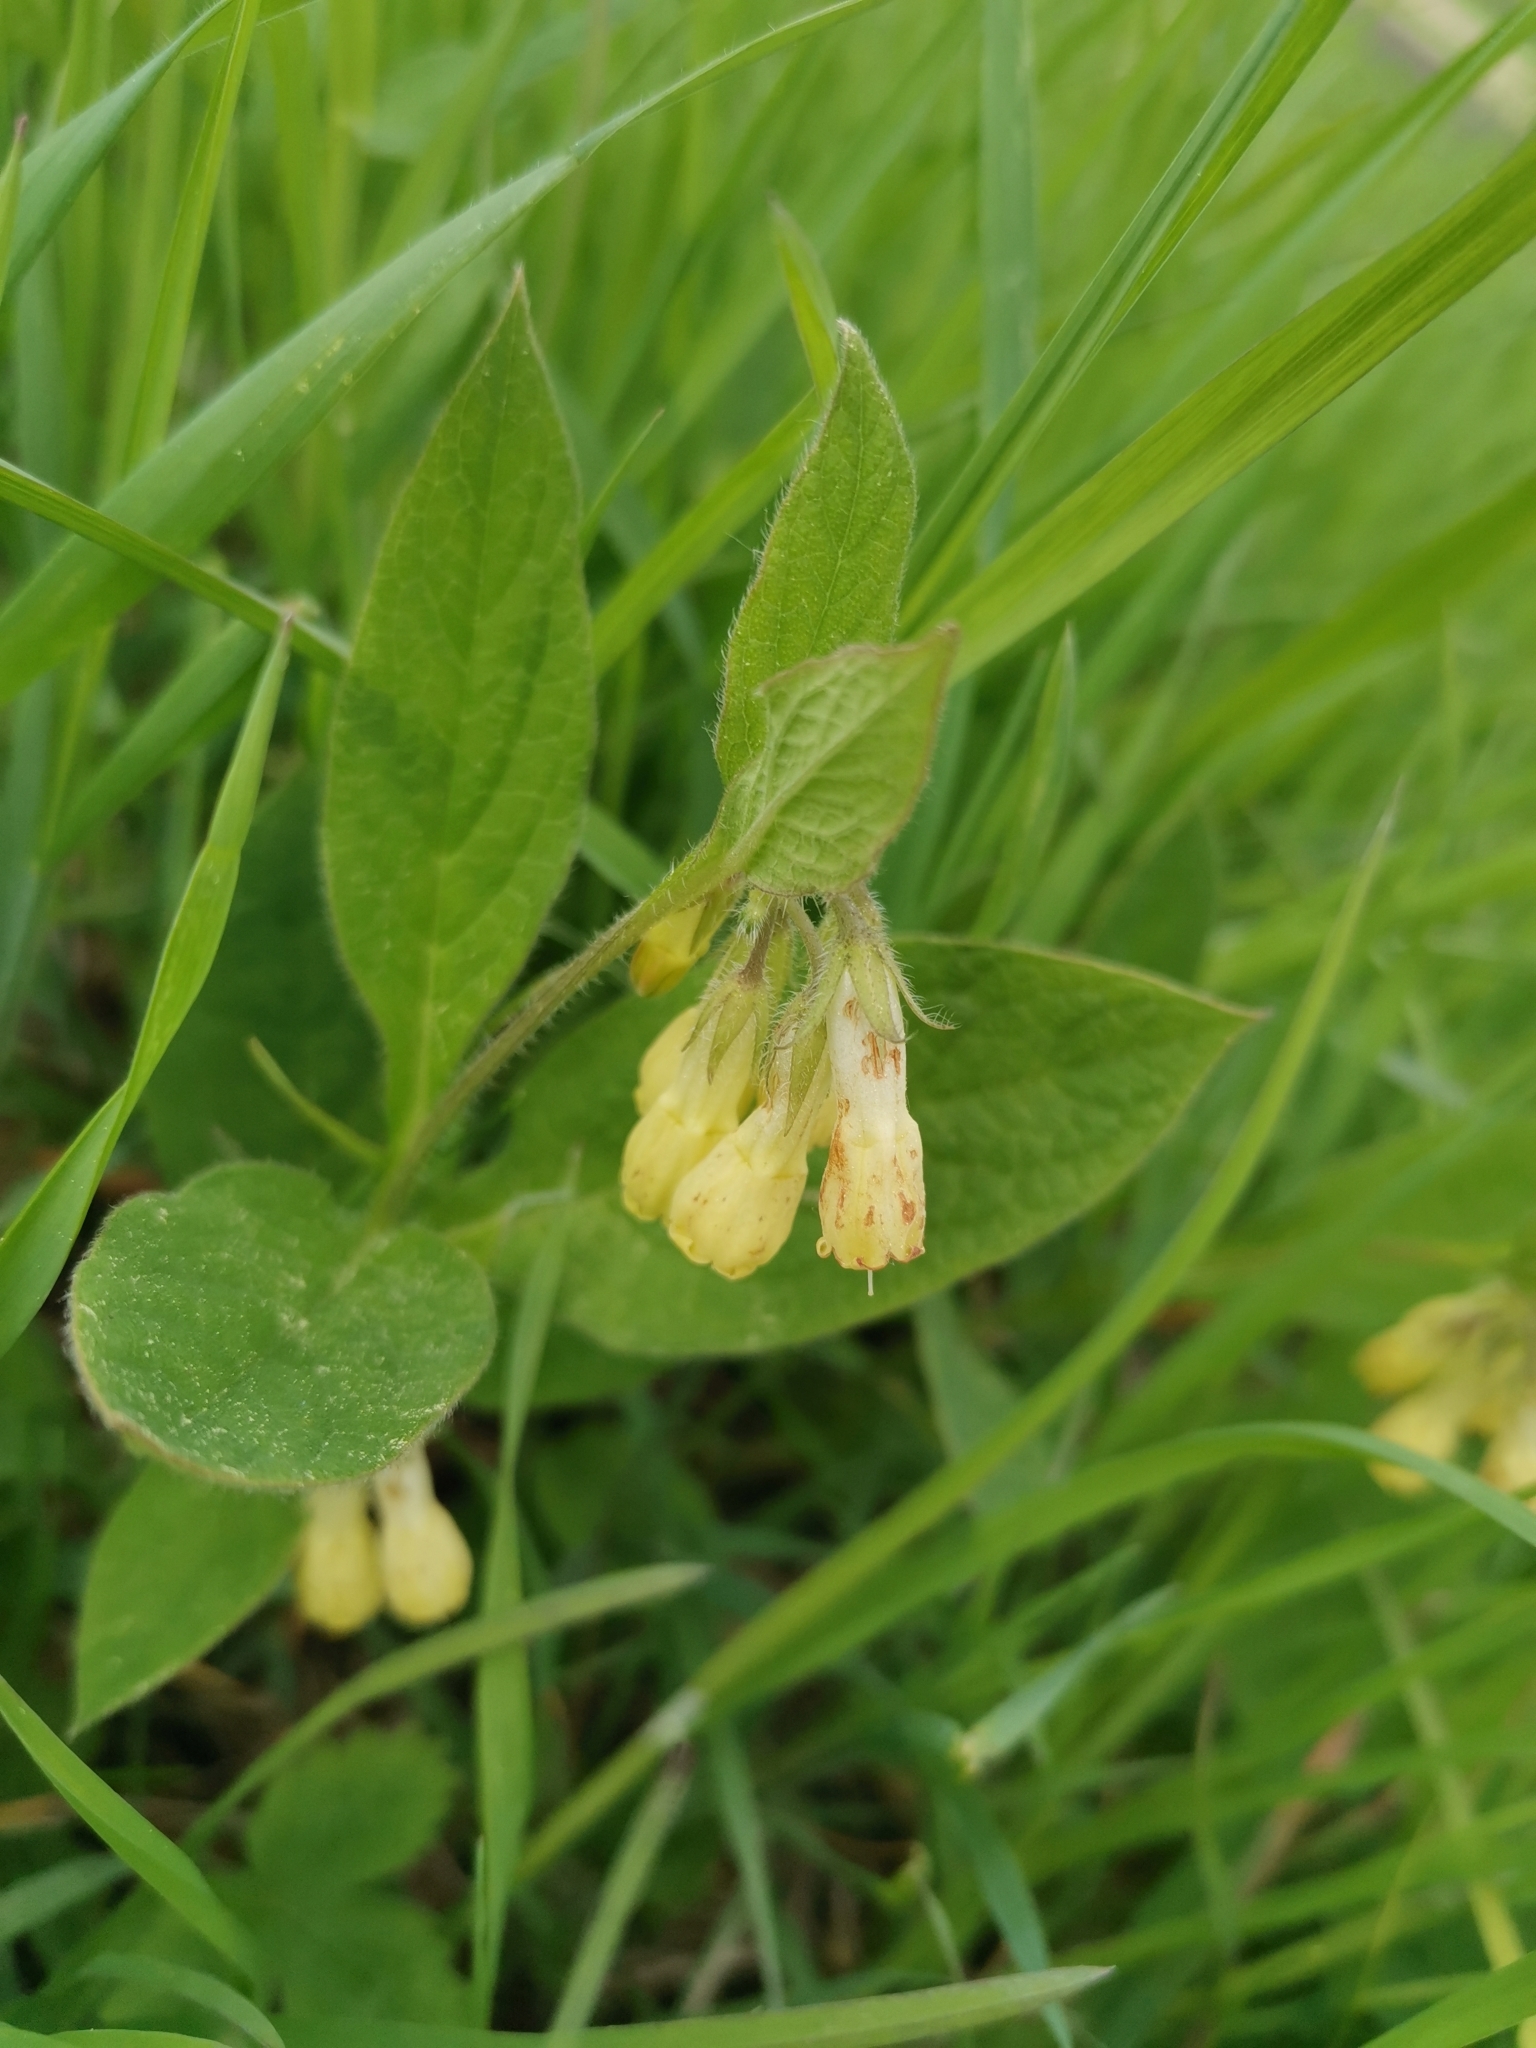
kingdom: Plantae
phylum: Tracheophyta
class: Magnoliopsida
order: Boraginales
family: Boraginaceae
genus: Symphytum
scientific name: Symphytum tuberosum
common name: Tuberous comfrey
